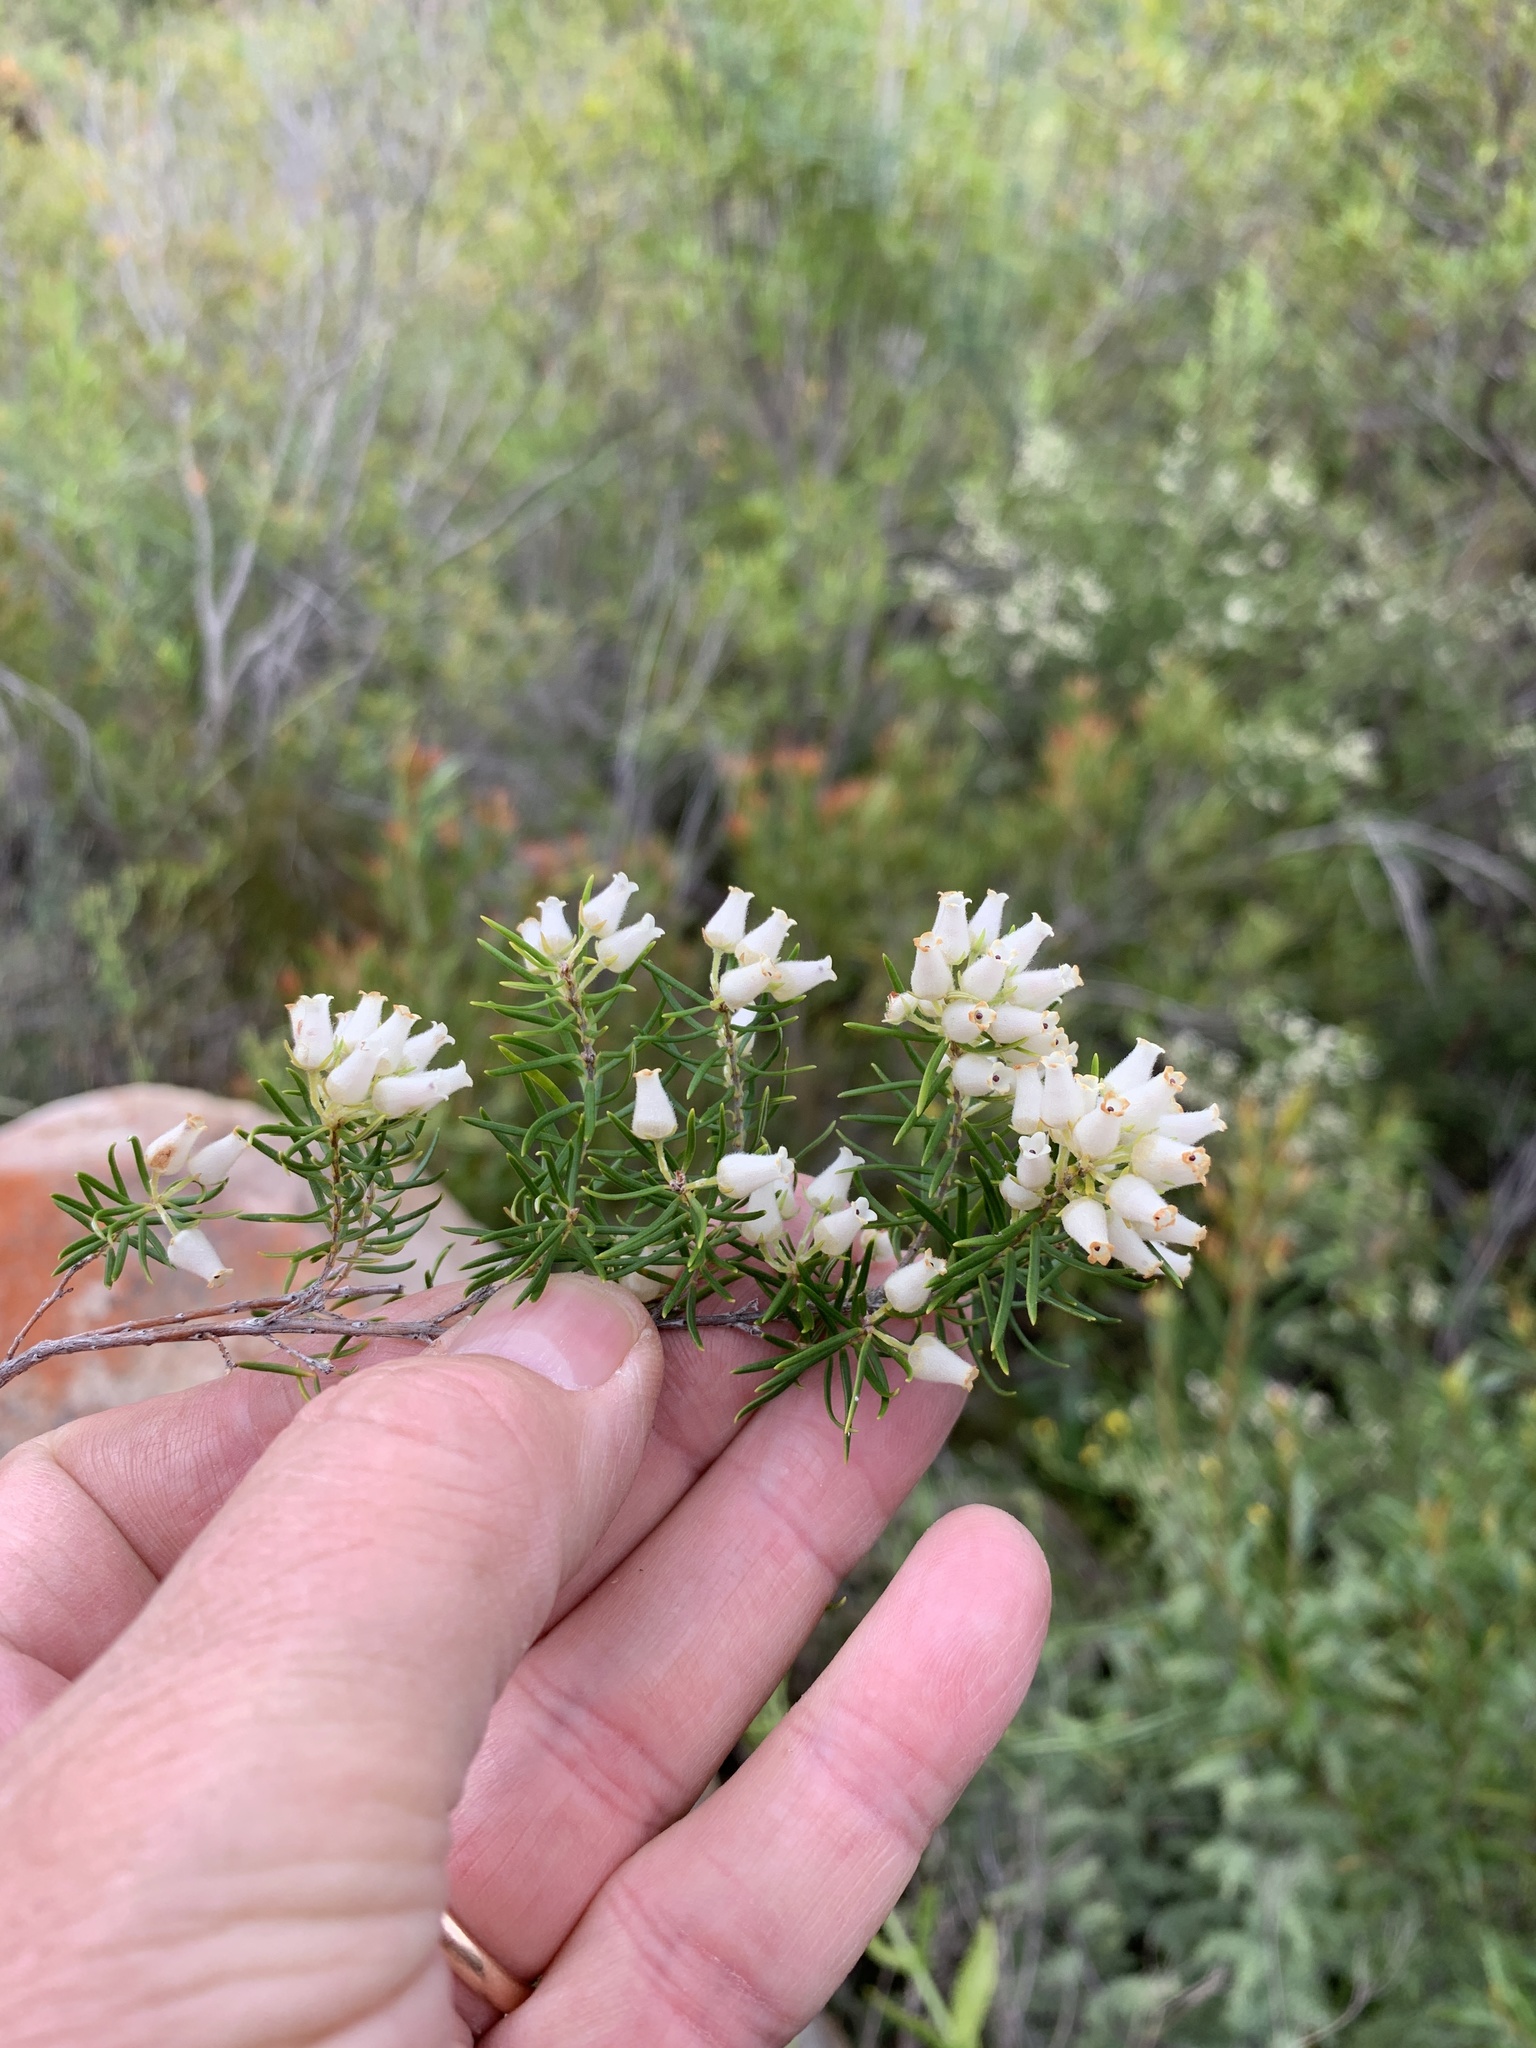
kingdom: Plantae
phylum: Tracheophyta
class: Magnoliopsida
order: Ericales
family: Ericaceae
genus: Erica
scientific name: Erica caffra
